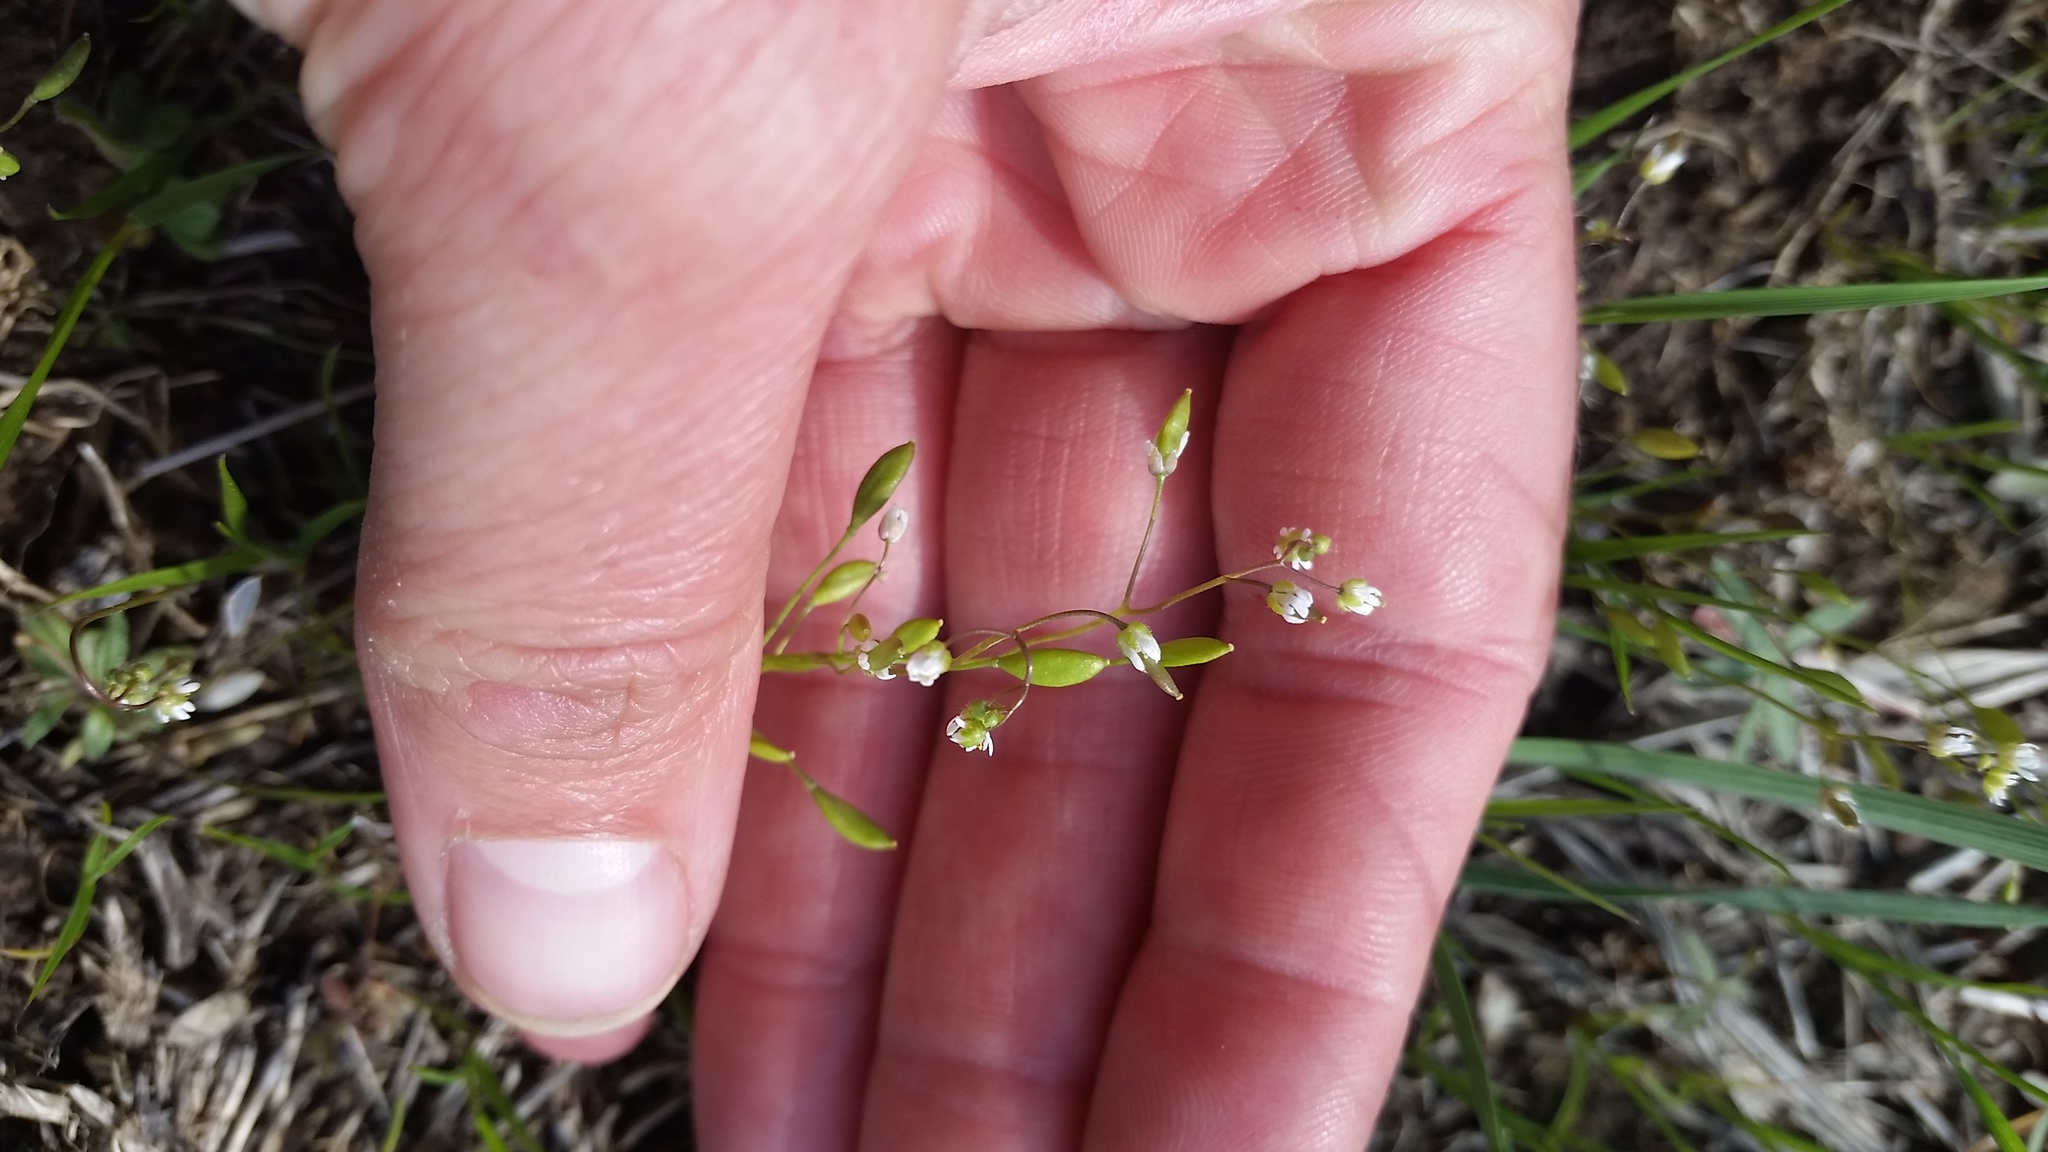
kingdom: Plantae
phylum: Tracheophyta
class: Magnoliopsida
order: Brassicales
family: Brassicaceae
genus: Draba
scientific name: Draba verna
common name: Spring draba
